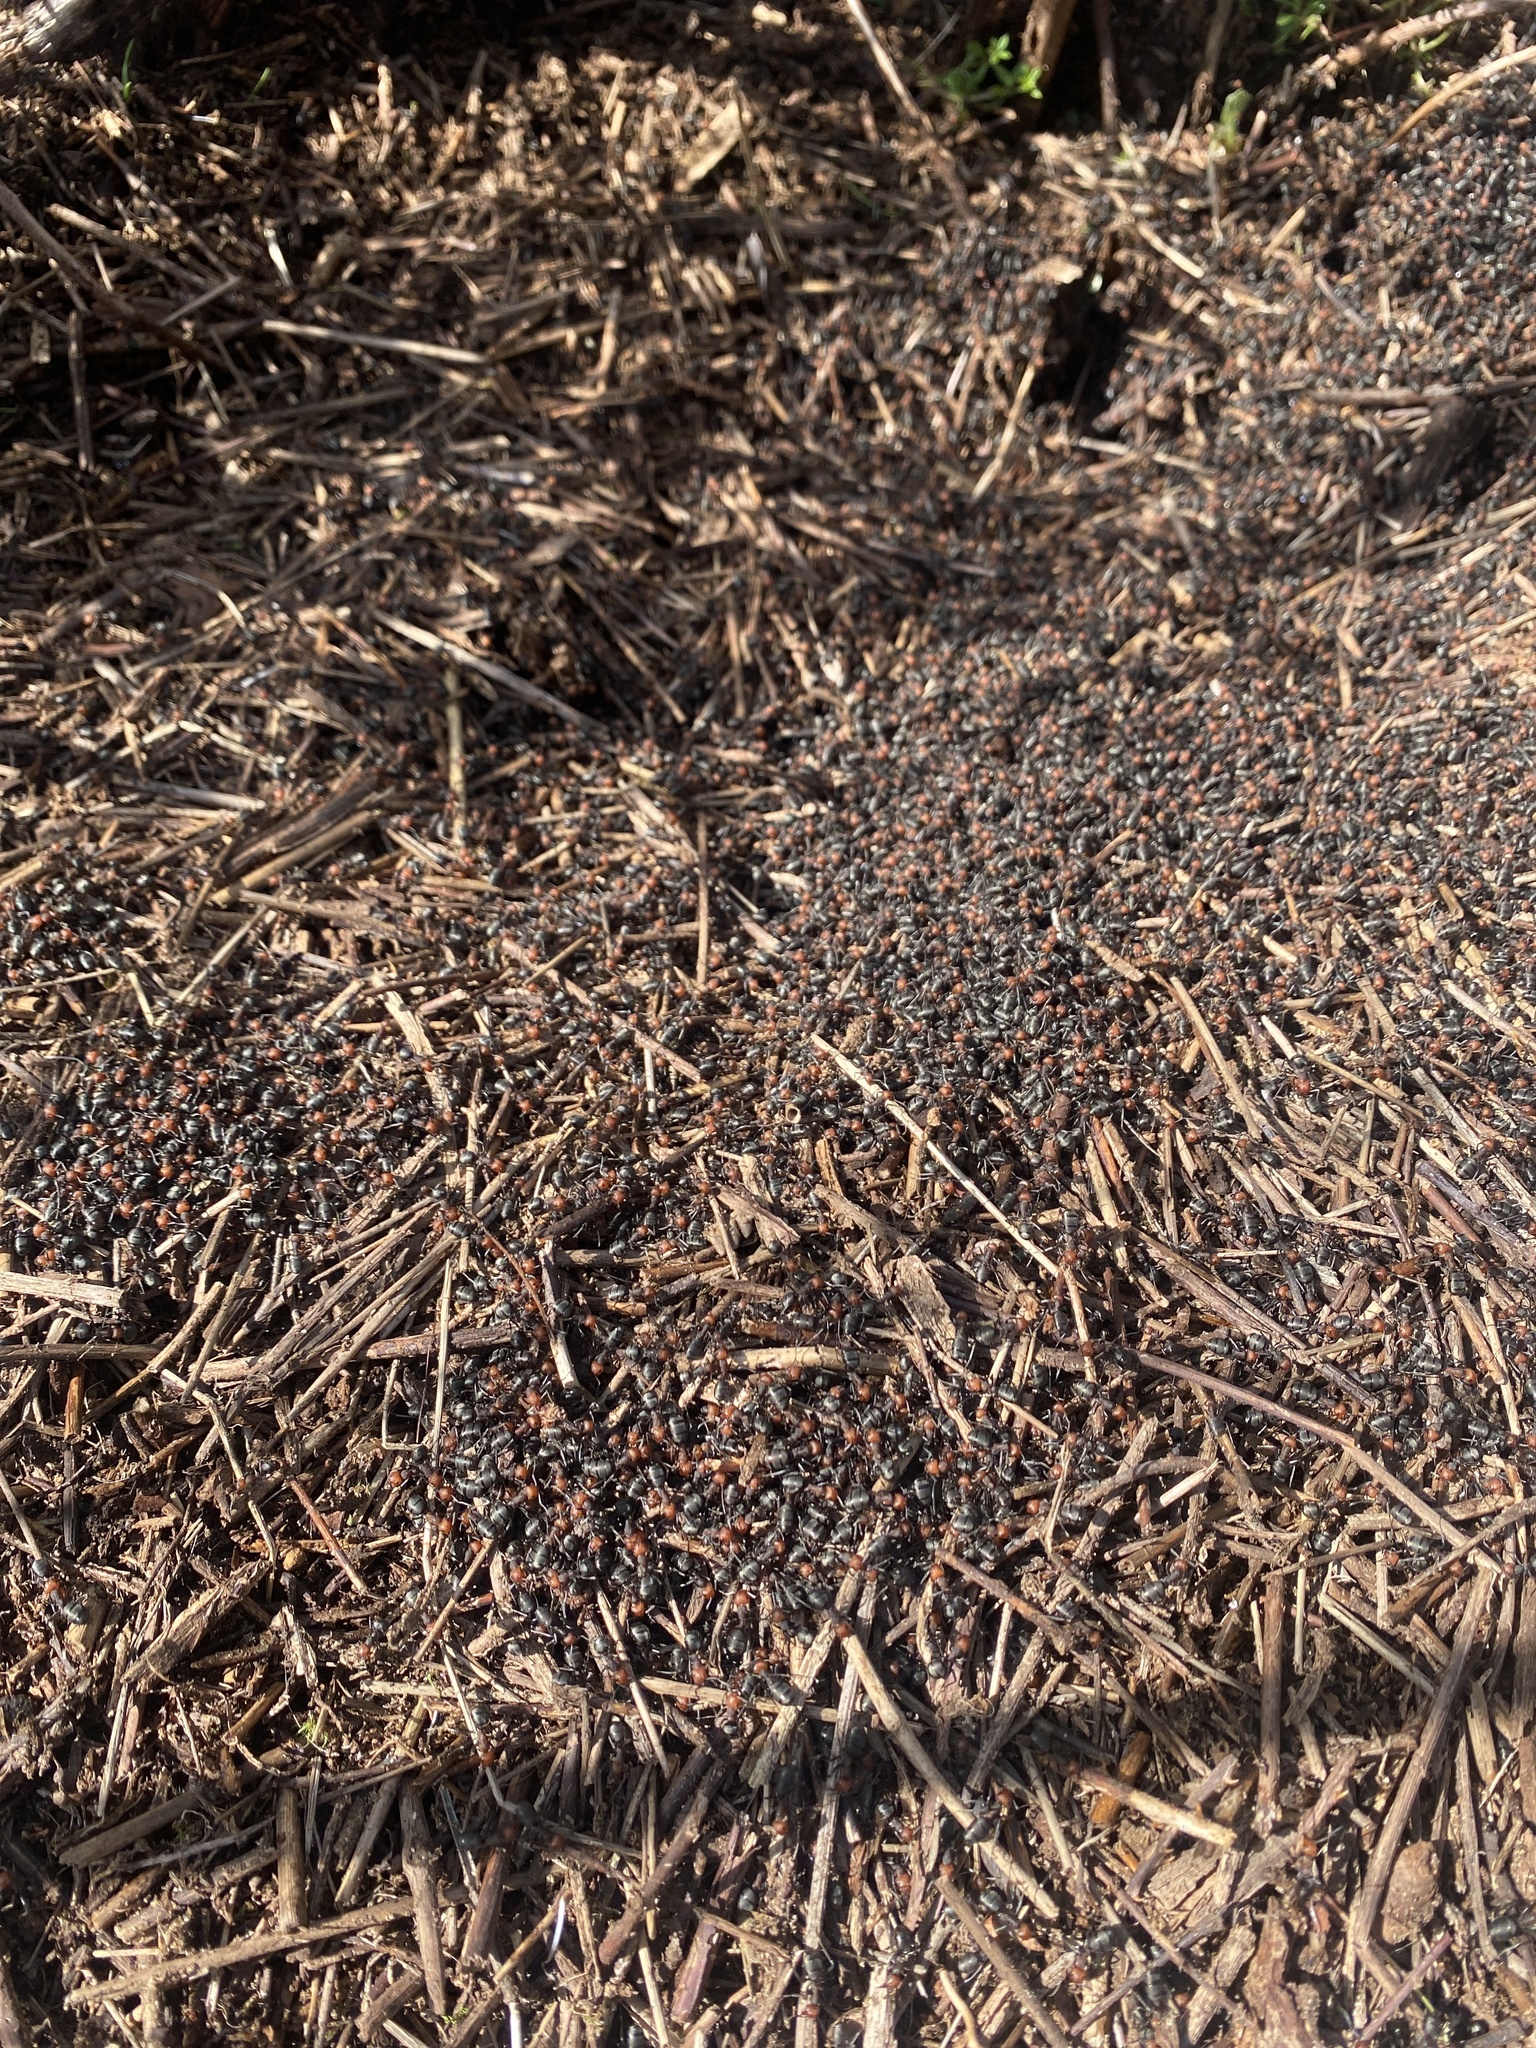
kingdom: Animalia
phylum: Arthropoda
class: Insecta
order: Hymenoptera
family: Formicidae
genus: Formica
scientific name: Formica obscuripes
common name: Western thatching ant
